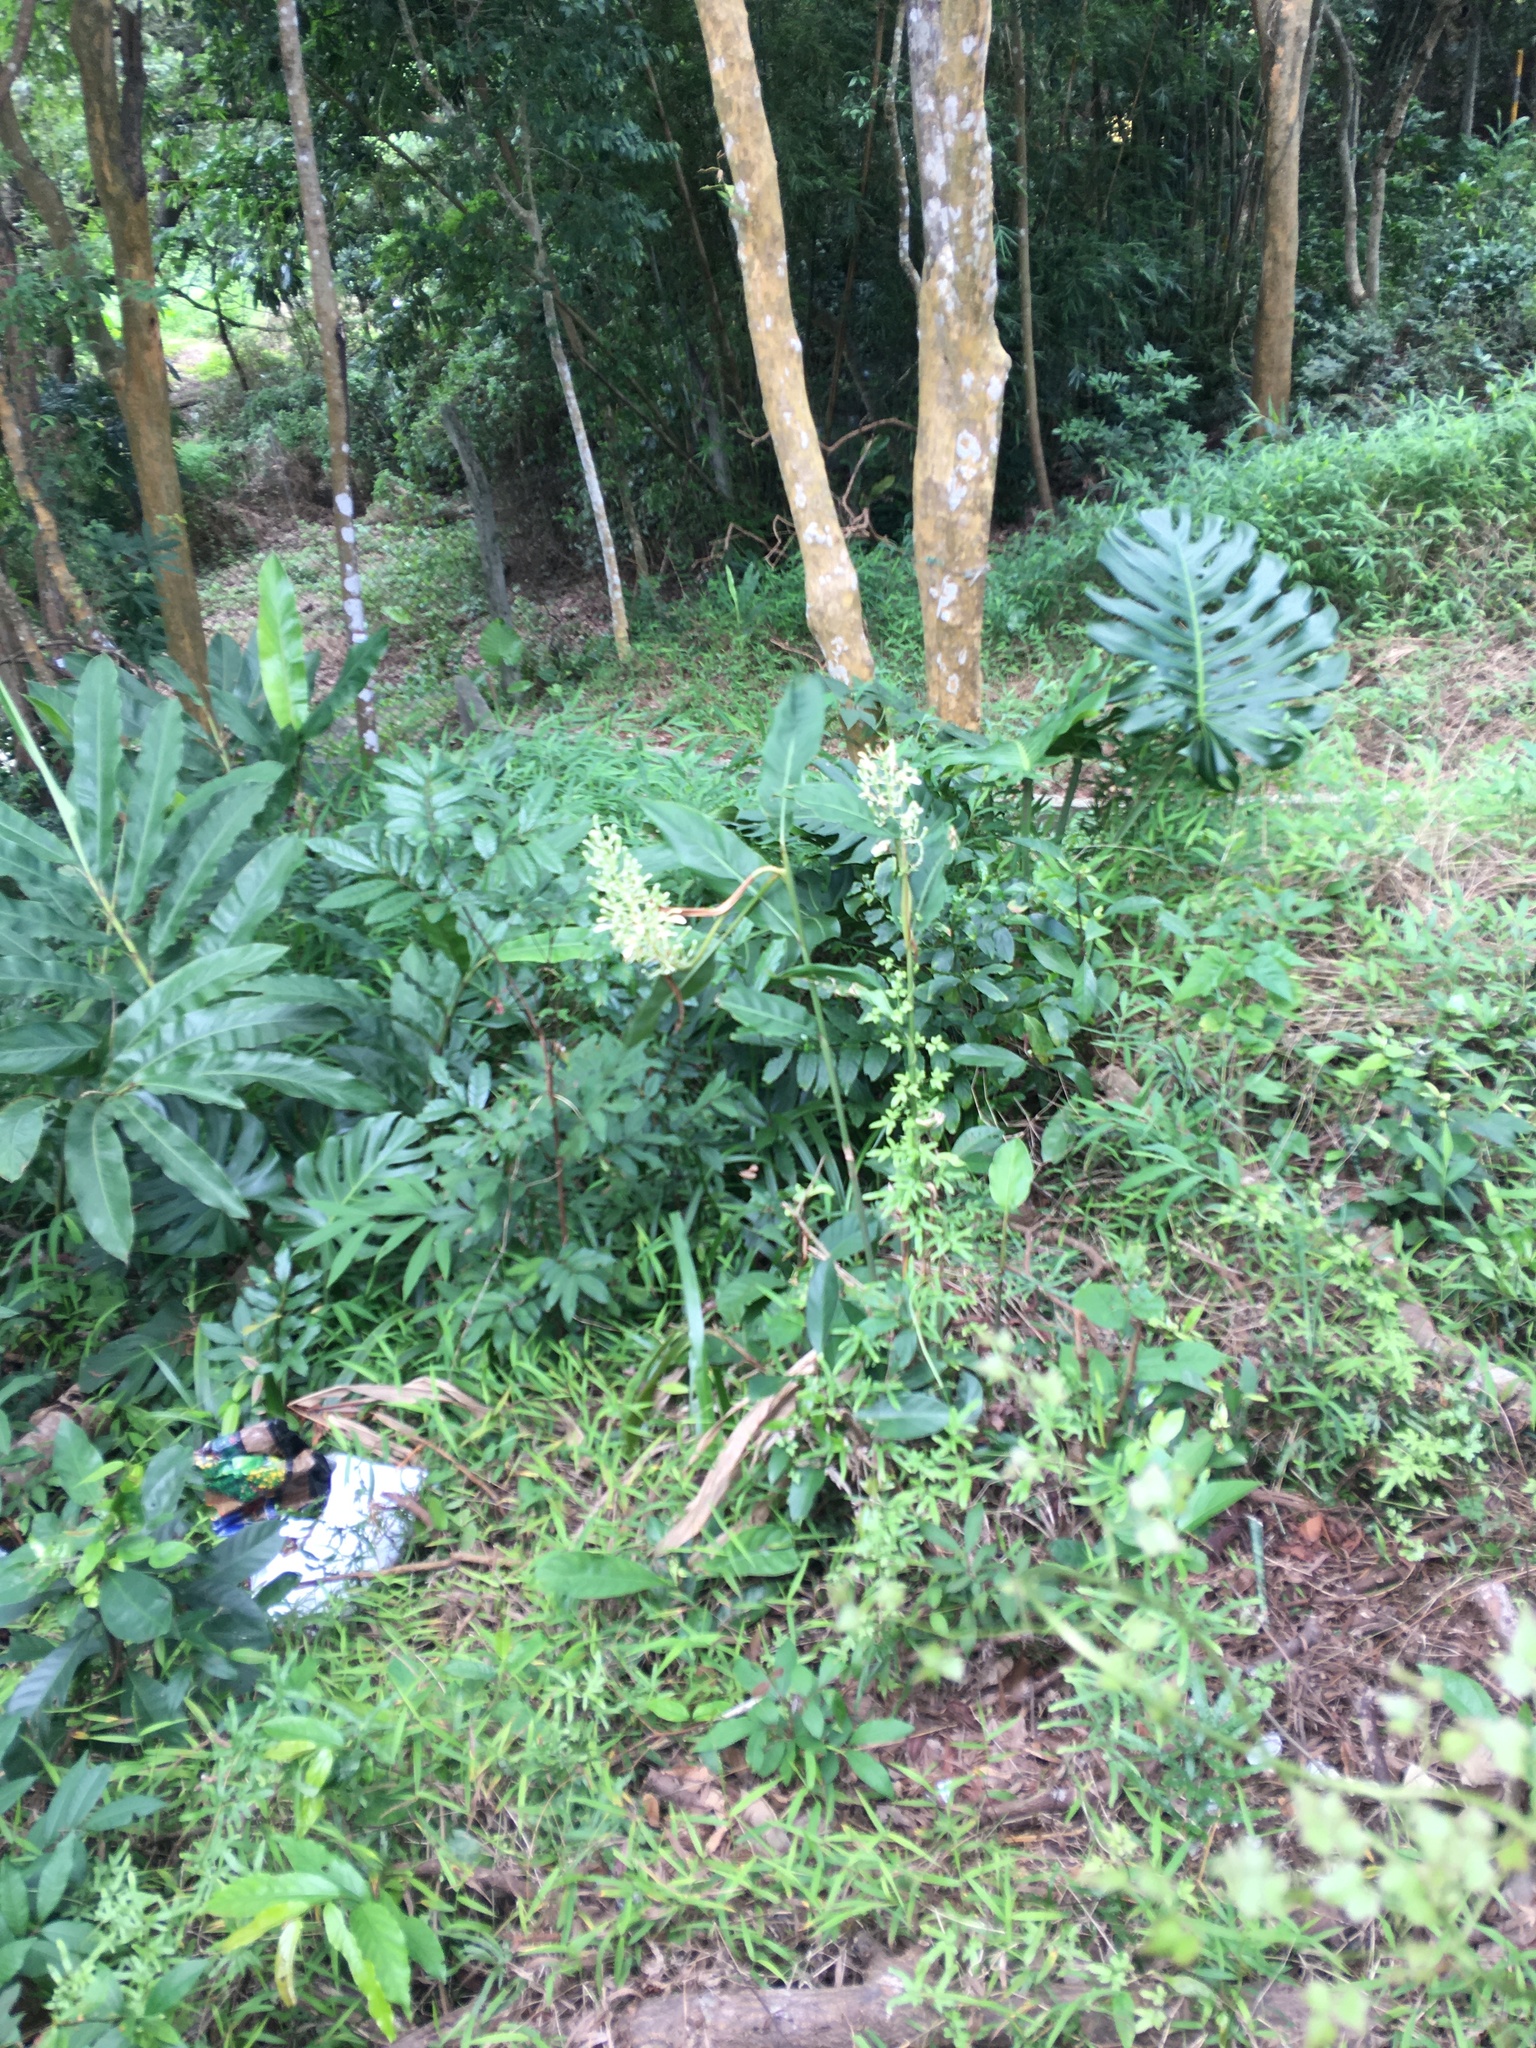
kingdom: Plantae
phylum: Tracheophyta
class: Liliopsida
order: Zingiberales
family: Zingiberaceae
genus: Alpinia
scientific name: Alpinia galanga
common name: Siamese-ginger
